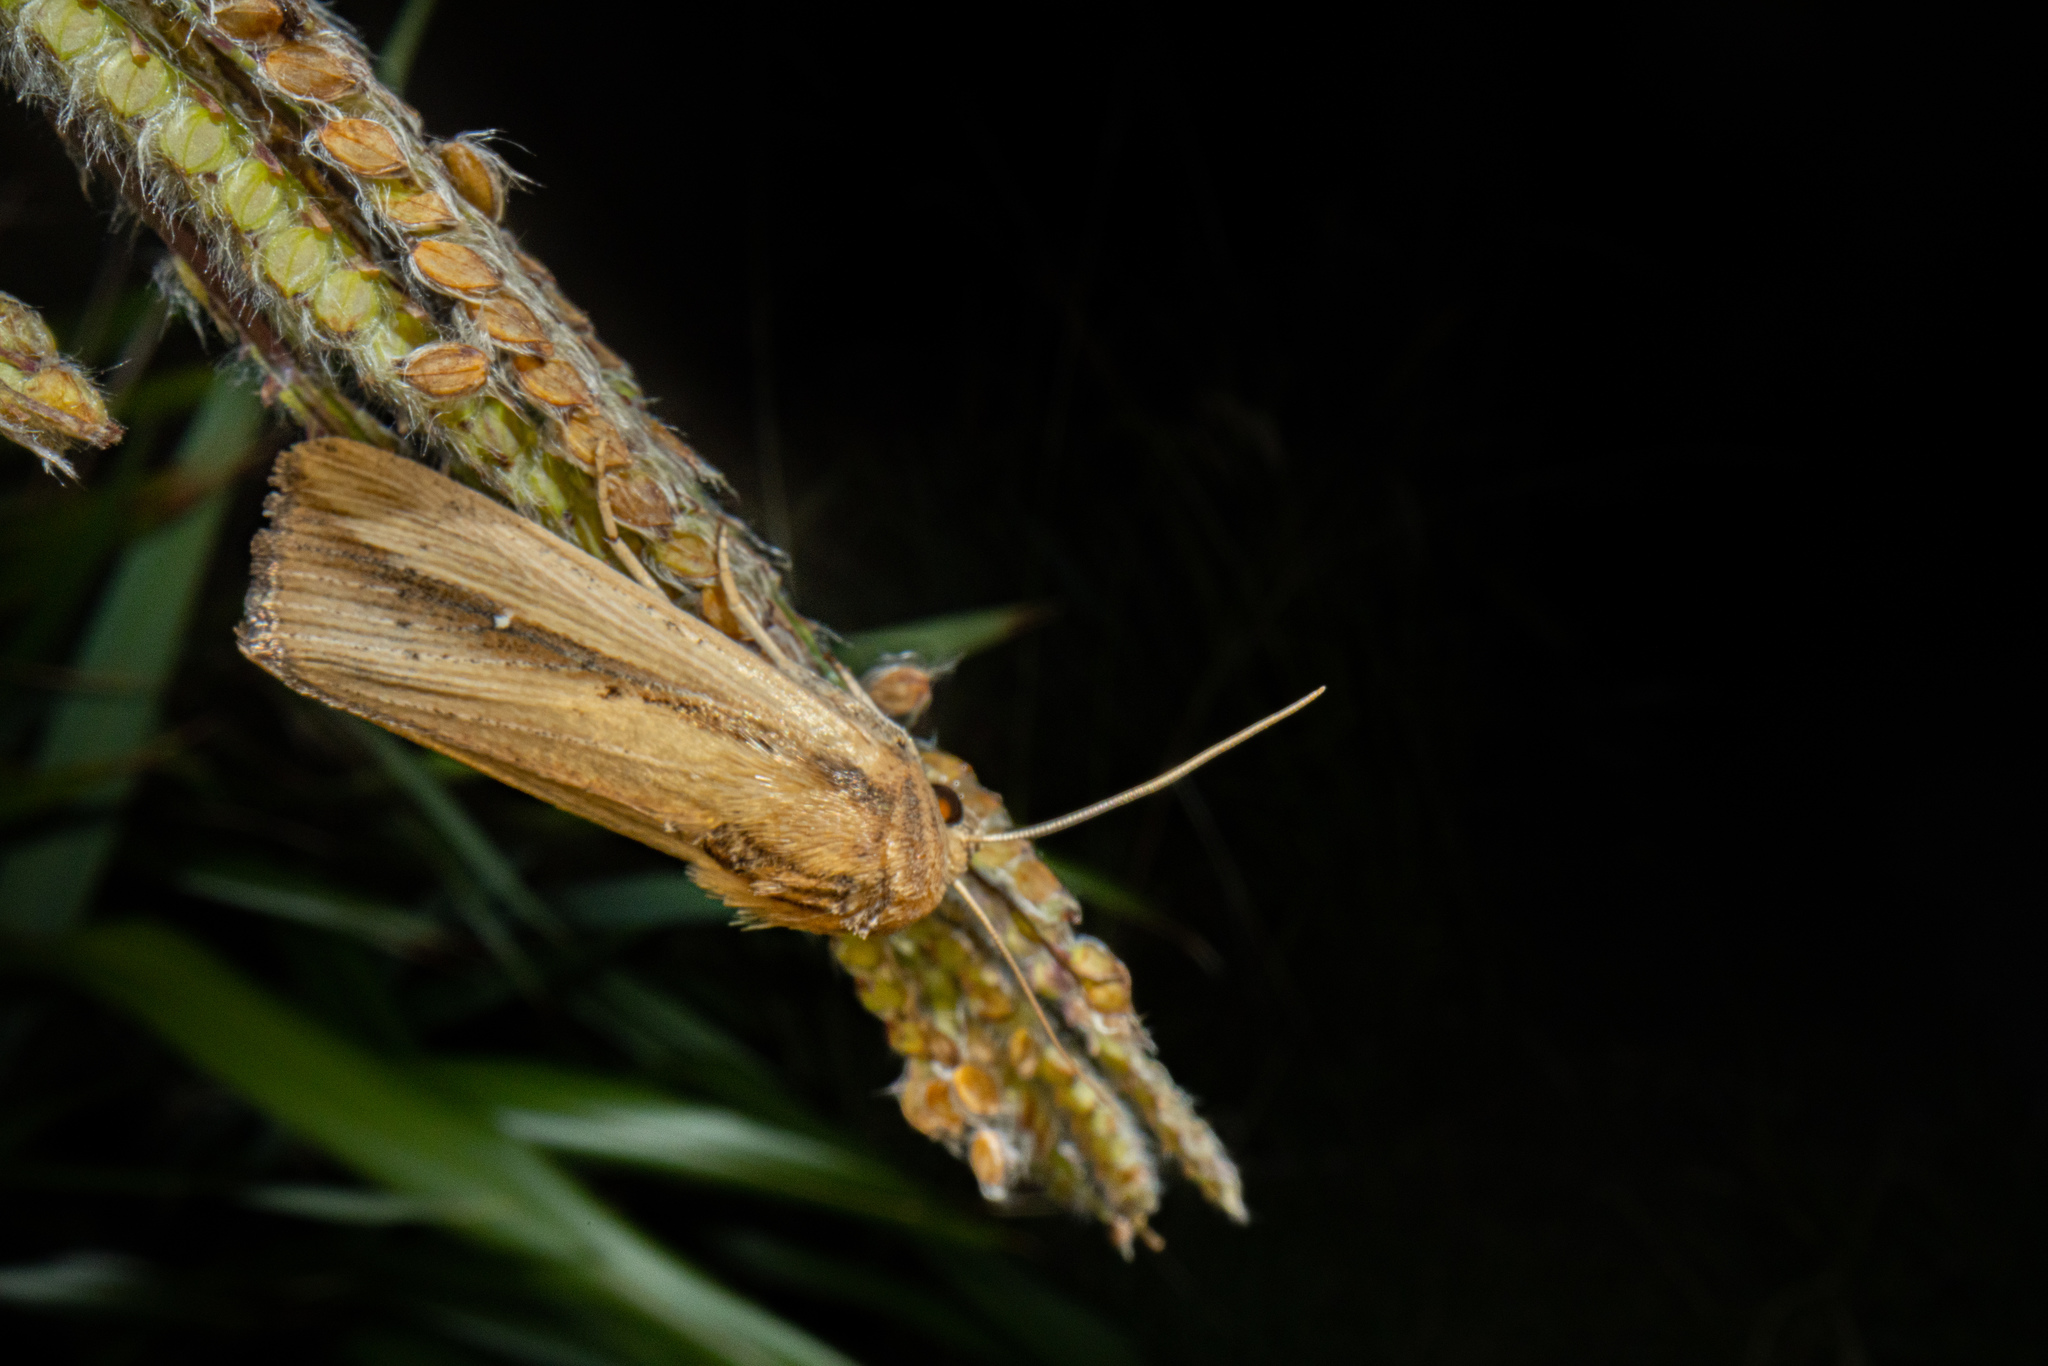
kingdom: Animalia
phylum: Arthropoda
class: Insecta
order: Lepidoptera
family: Noctuidae
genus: Leucania
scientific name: Leucania stenographa
